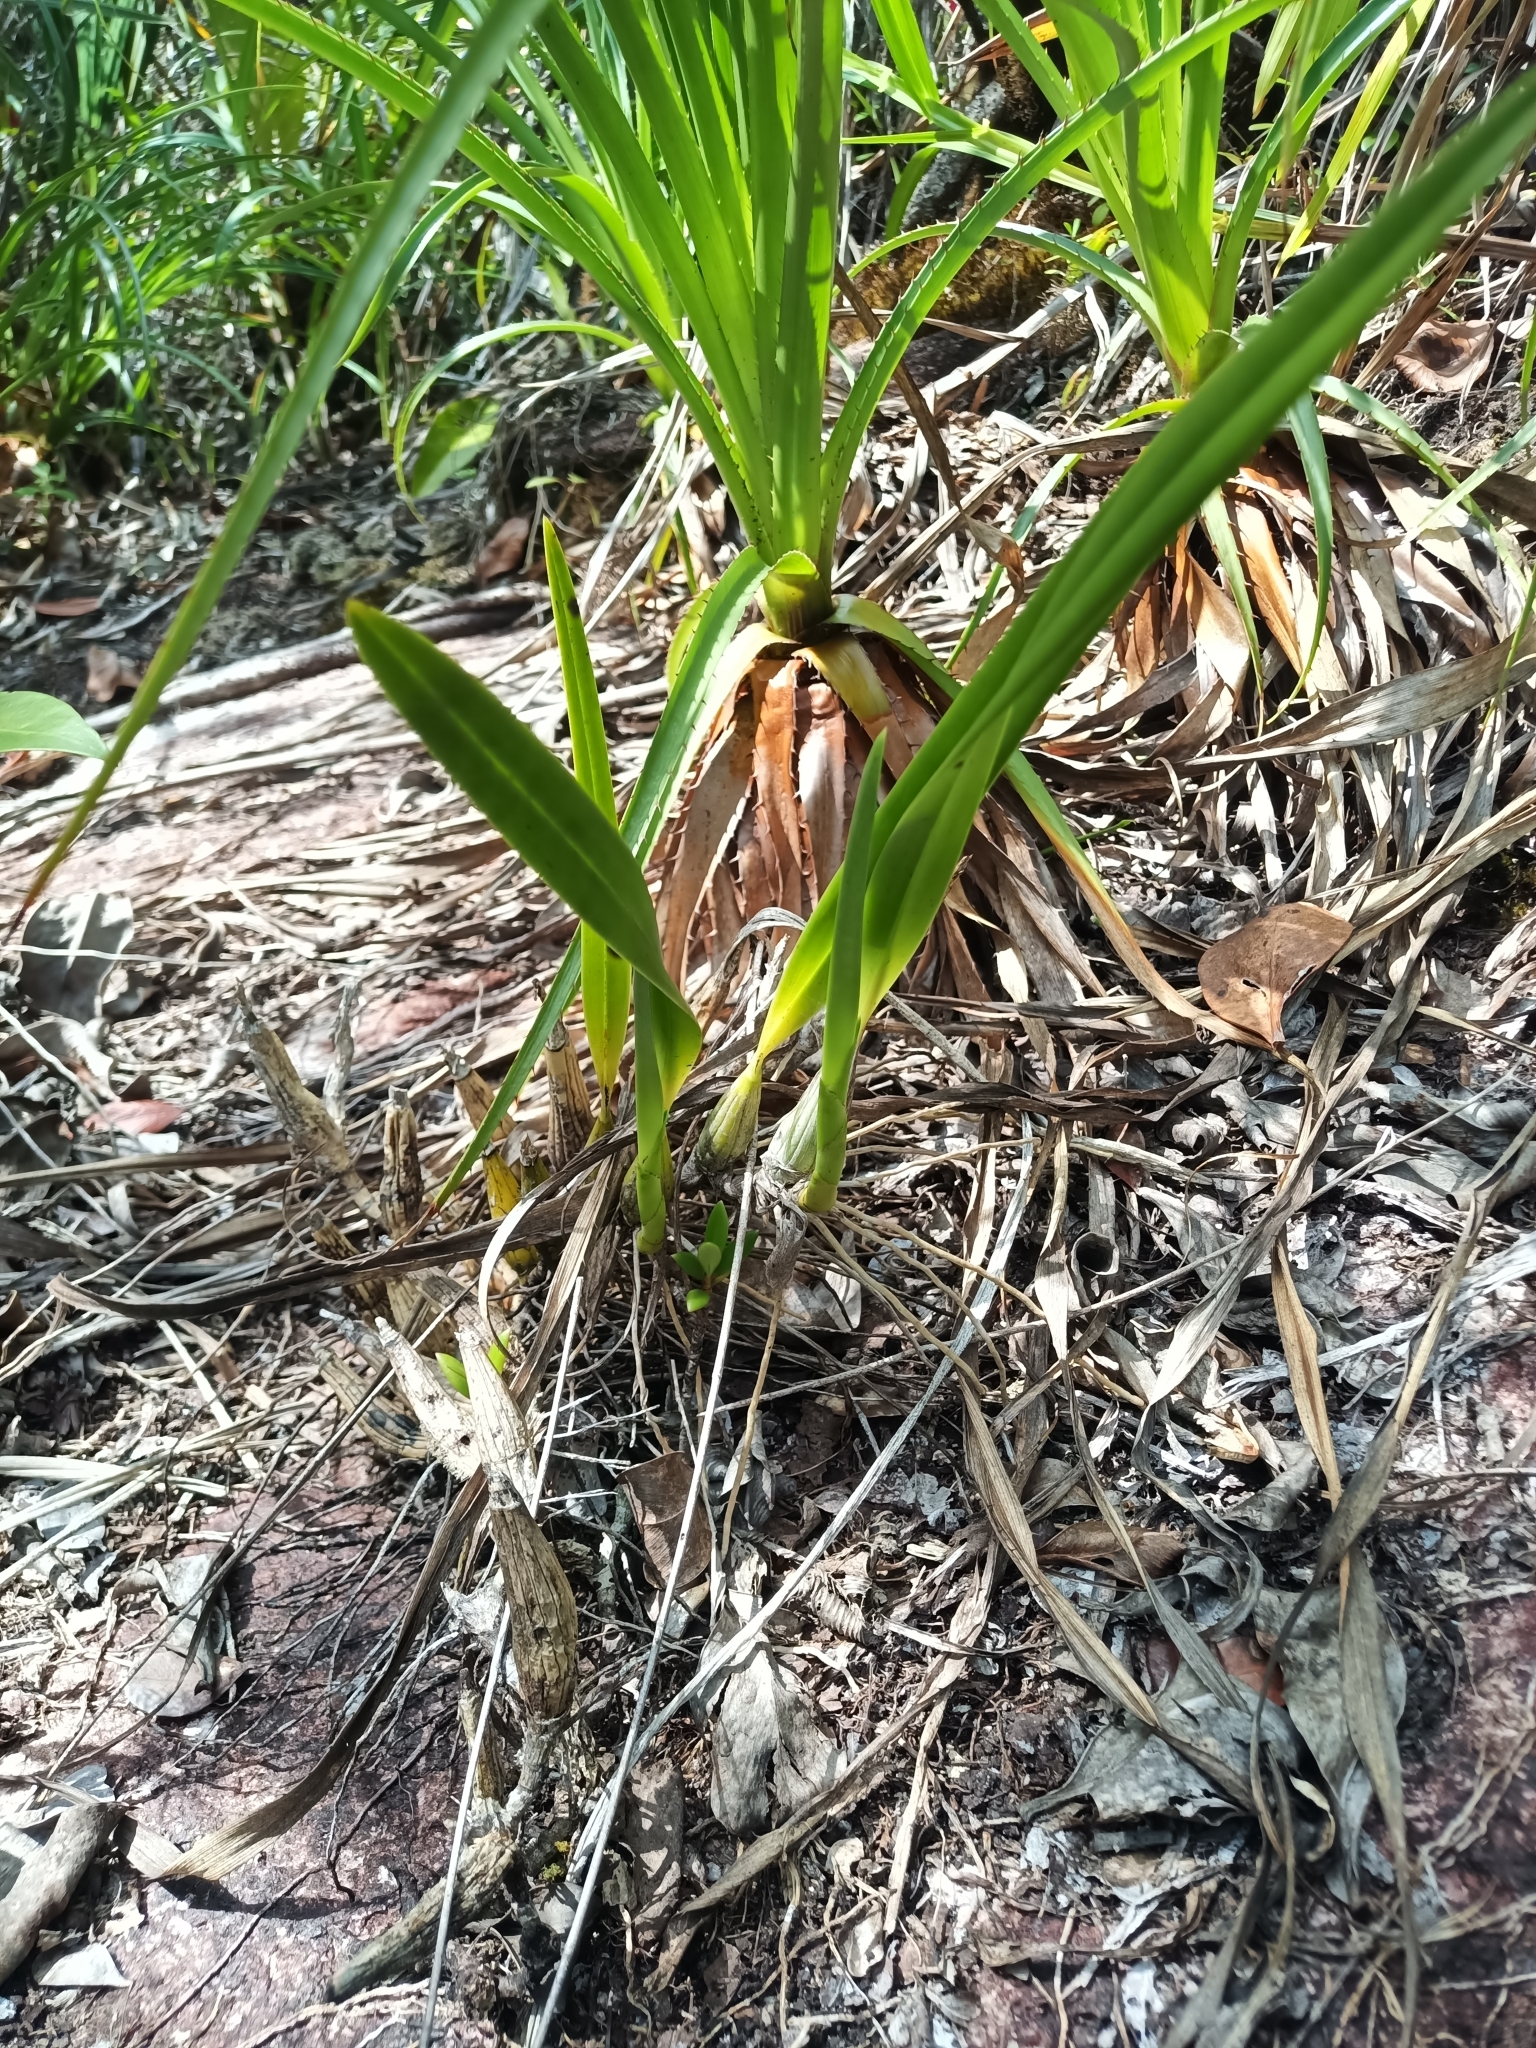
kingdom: Plantae
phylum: Tracheophyta
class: Liliopsida
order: Asparagales
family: Orchidaceae
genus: Encyclia
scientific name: Encyclia granitica
